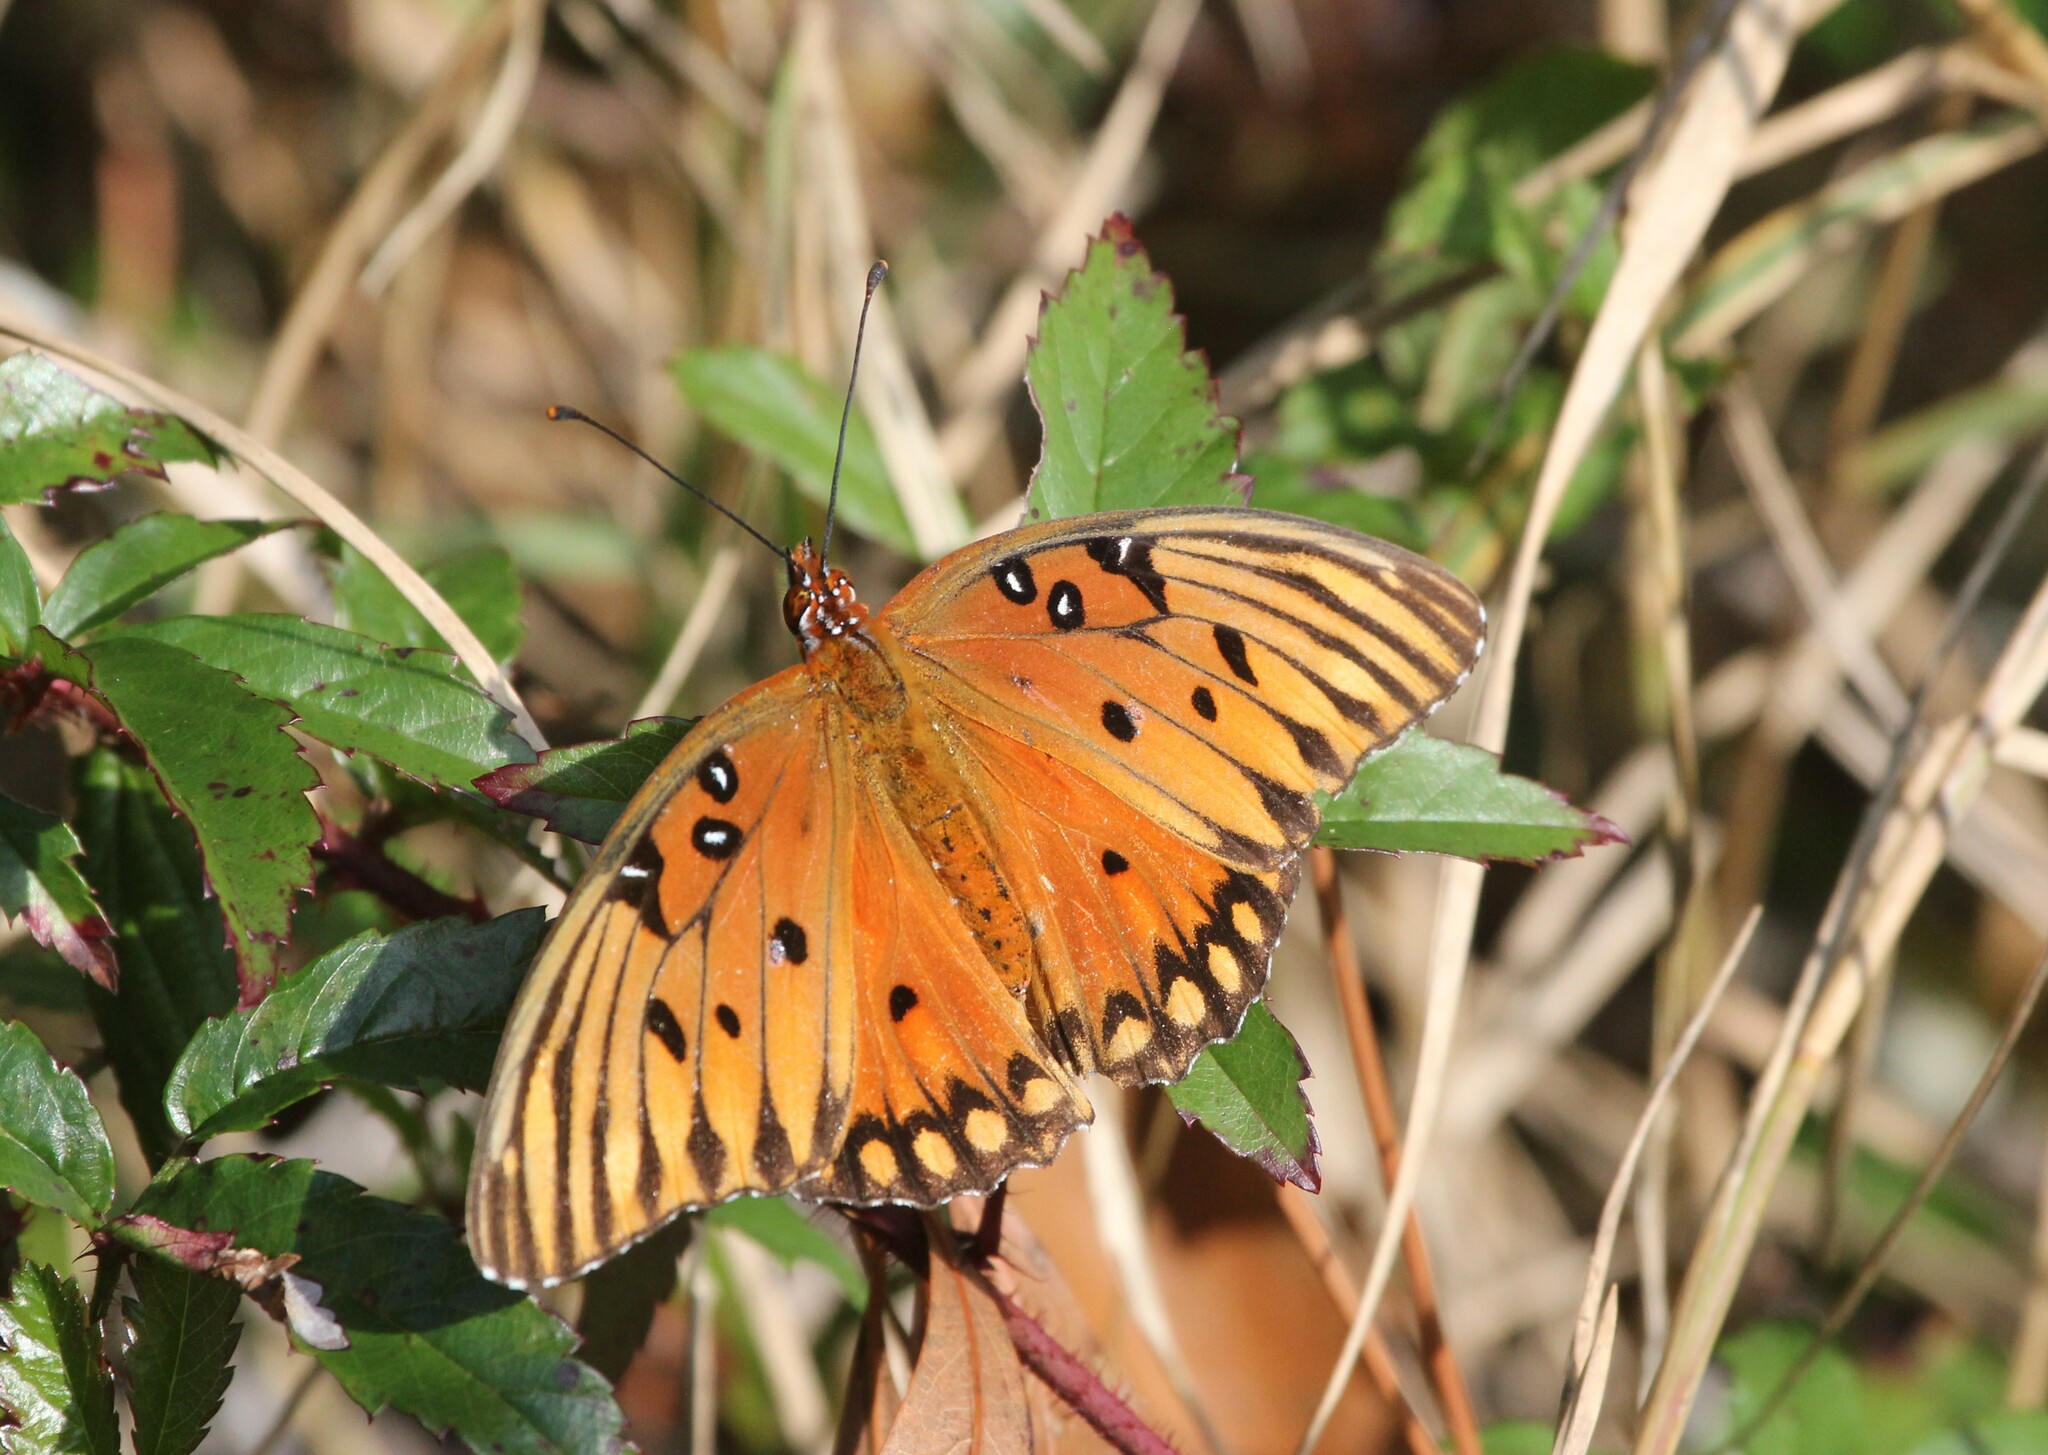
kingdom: Animalia
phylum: Arthropoda
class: Insecta
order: Lepidoptera
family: Nymphalidae
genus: Dione
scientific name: Dione vanillae
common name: Gulf fritillary
